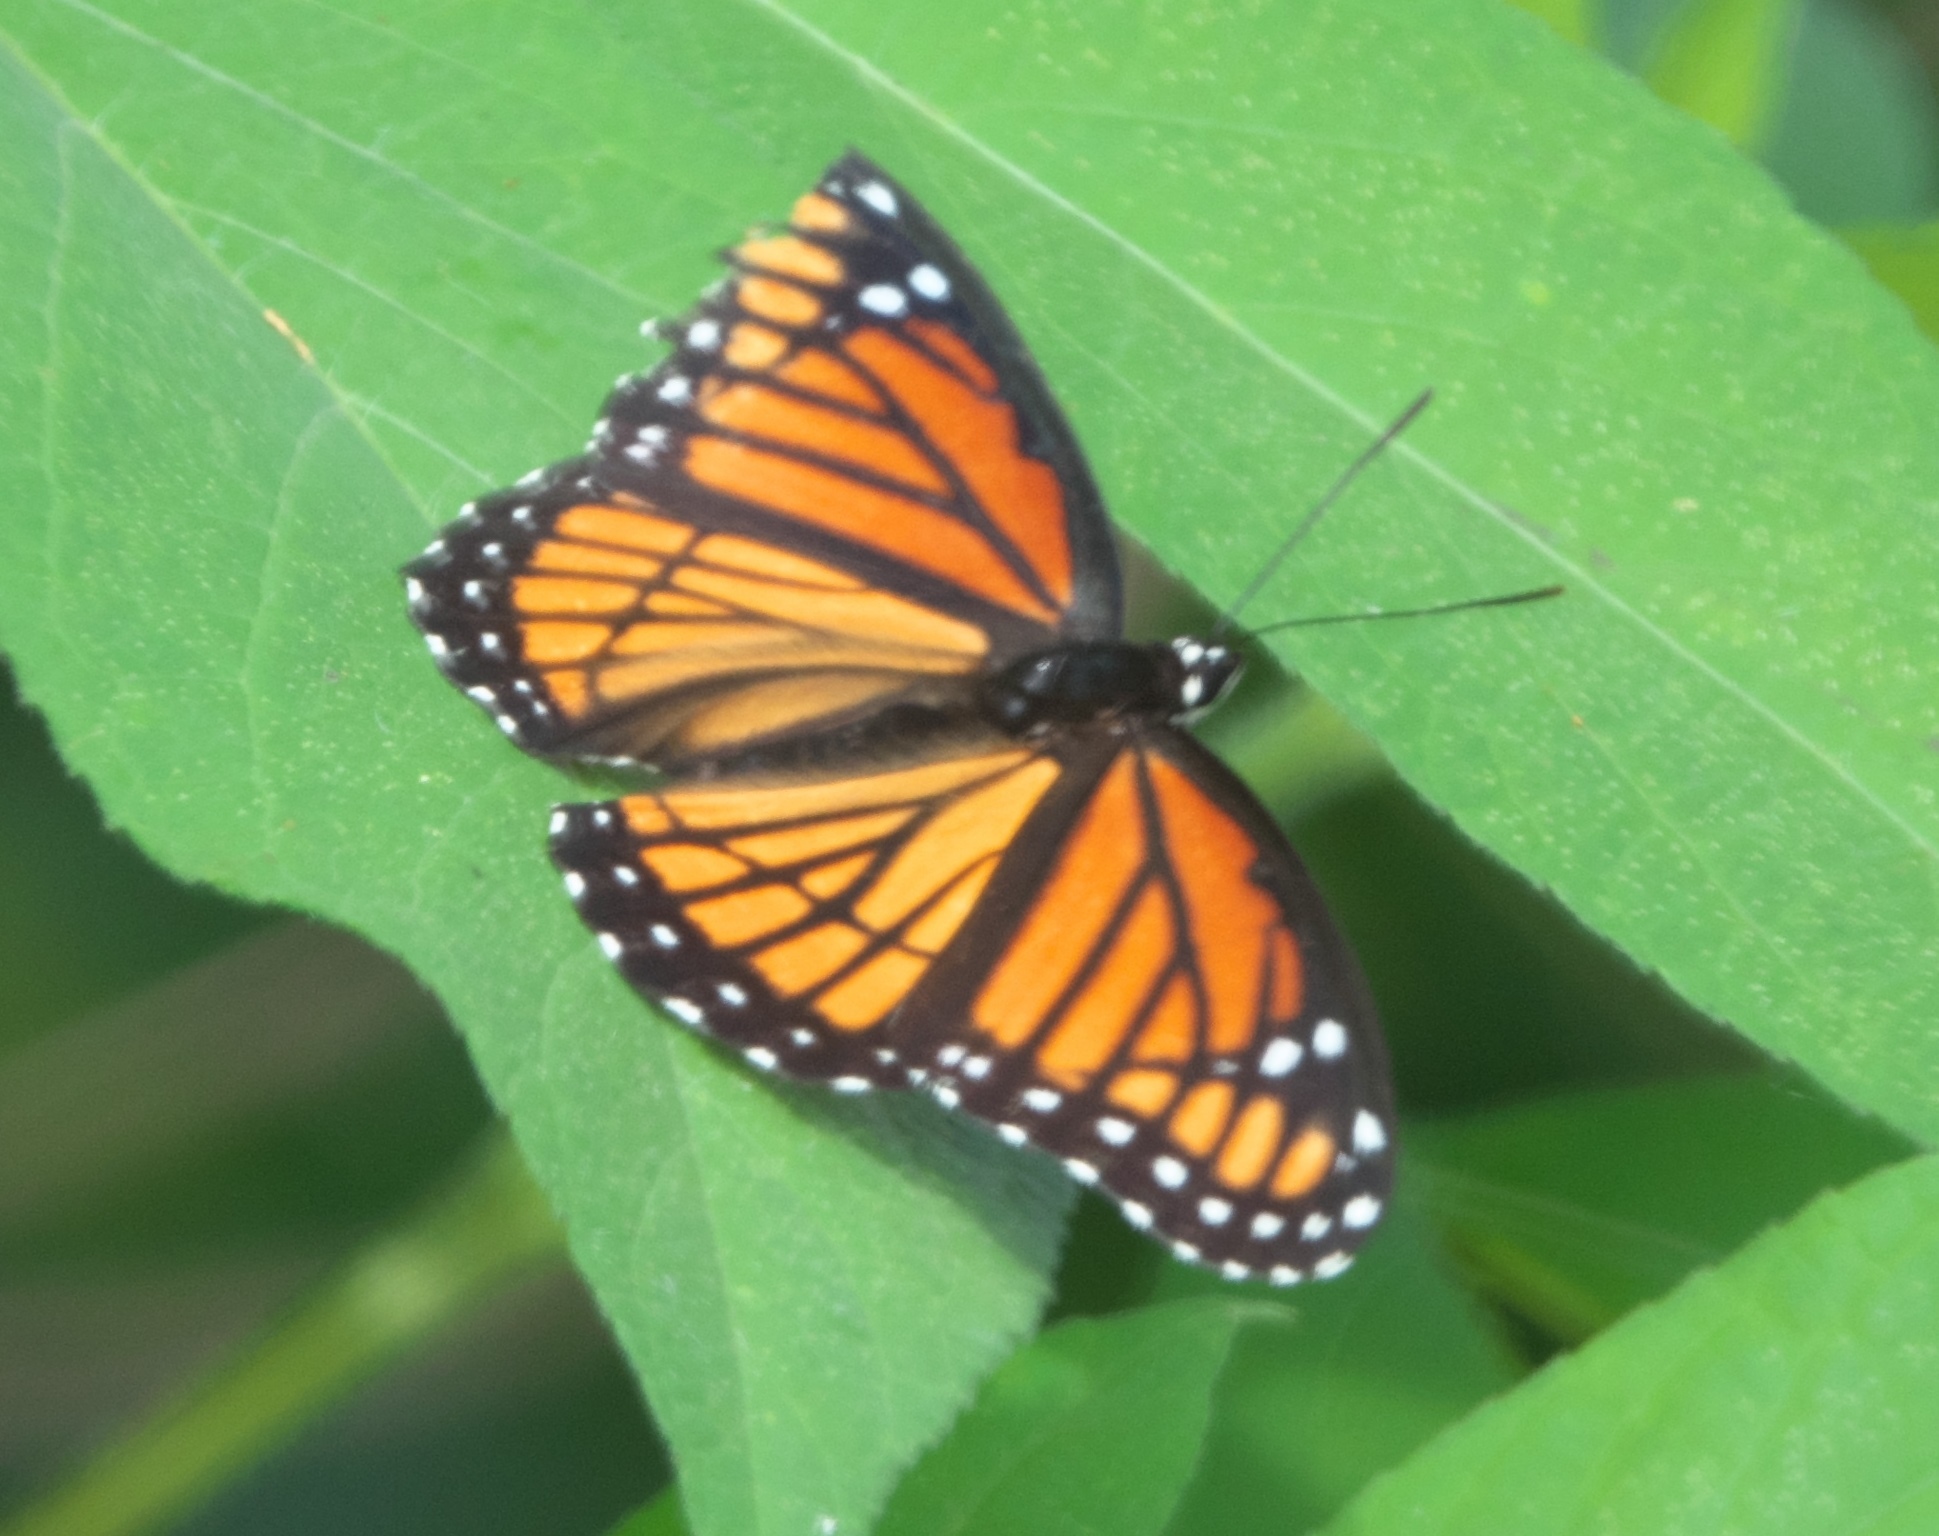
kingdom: Animalia
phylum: Arthropoda
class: Insecta
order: Lepidoptera
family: Nymphalidae
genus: Limenitis
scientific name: Limenitis archippus
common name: Viceroy
